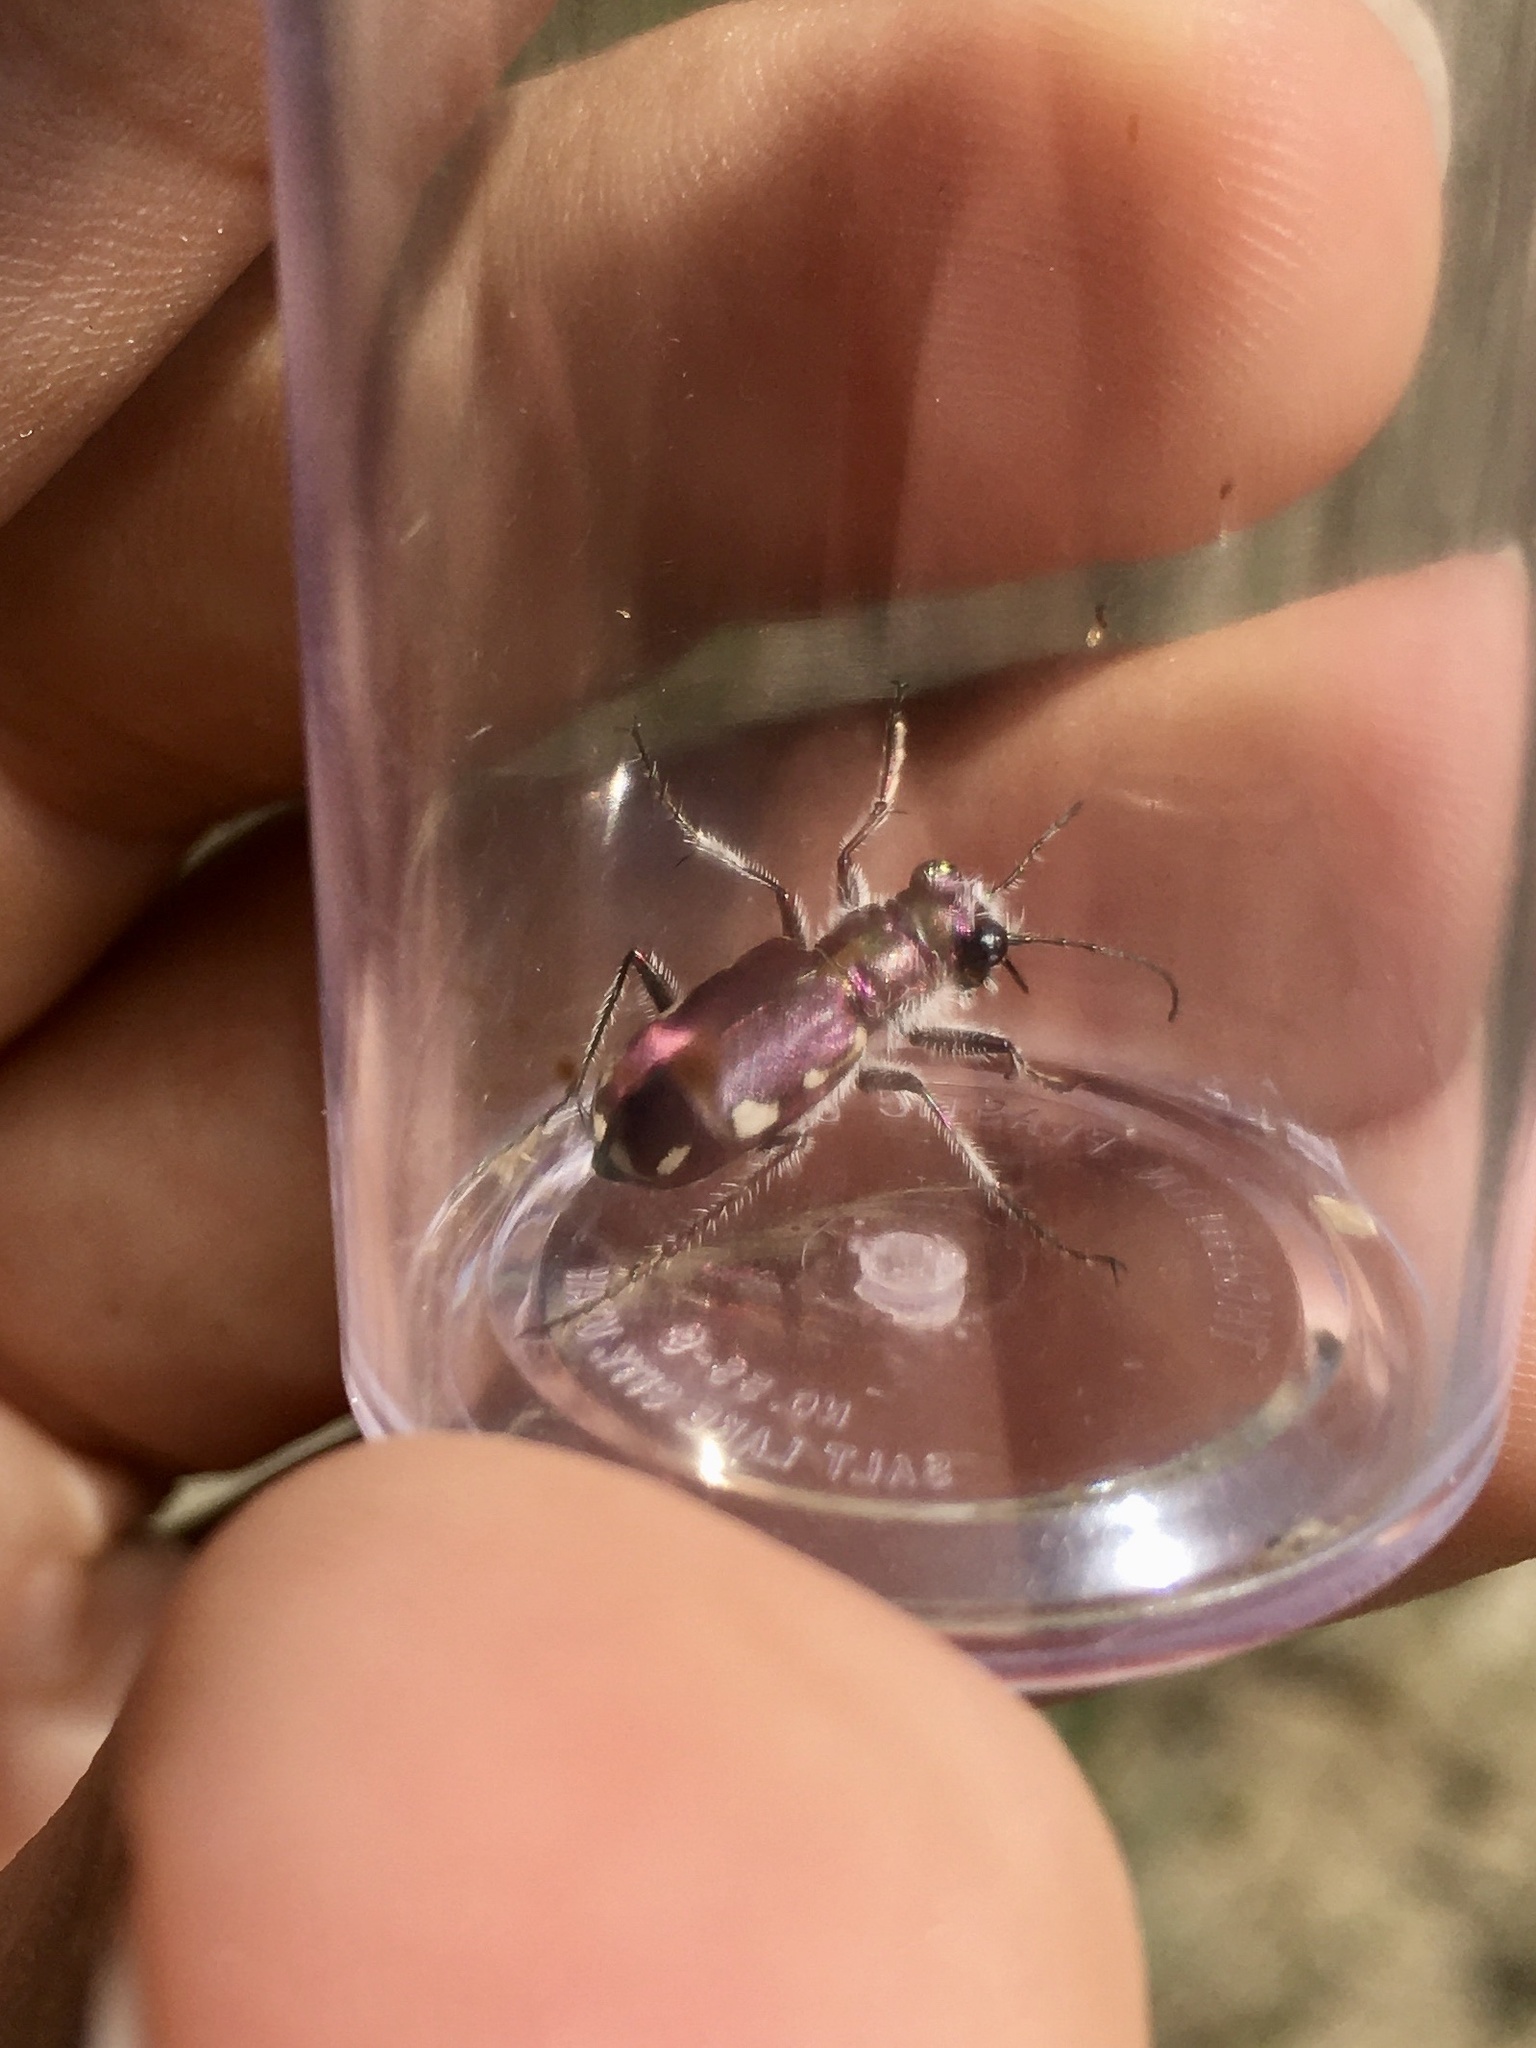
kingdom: Animalia
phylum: Arthropoda
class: Insecta
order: Coleoptera
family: Carabidae
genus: Cicindela
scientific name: Cicindela scutellaris
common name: Festive tiger beetle
